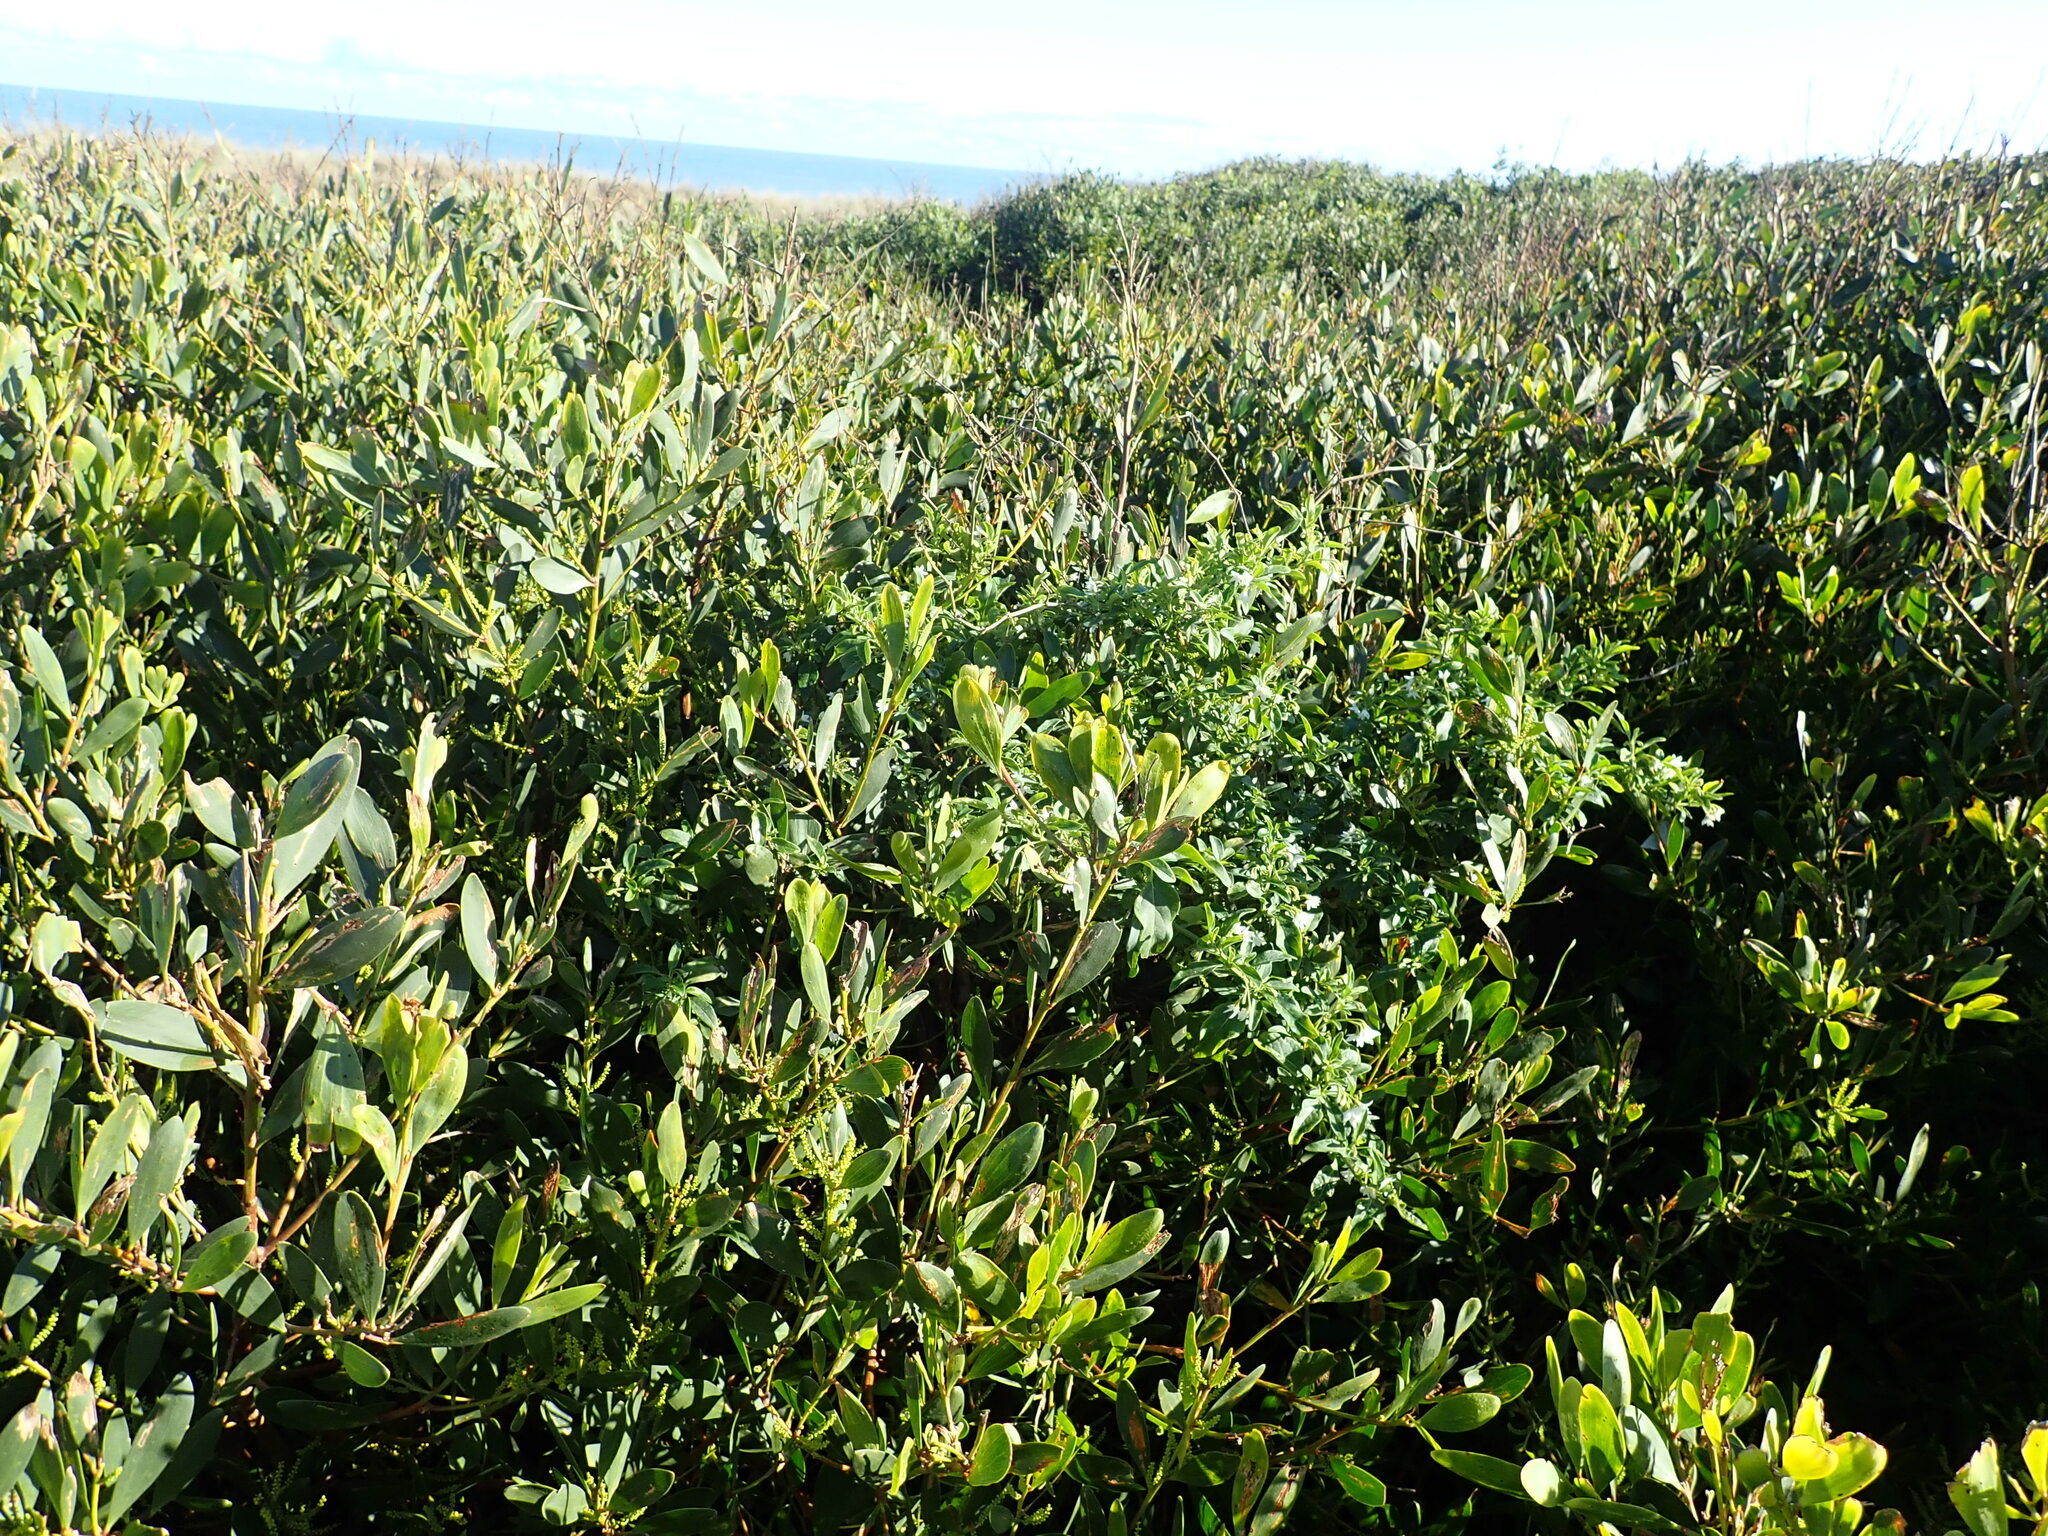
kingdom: Plantae
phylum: Tracheophyta
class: Magnoliopsida
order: Solanales
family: Solanaceae
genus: Solanum
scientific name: Solanum chenopodioides
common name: Tall nightshade
